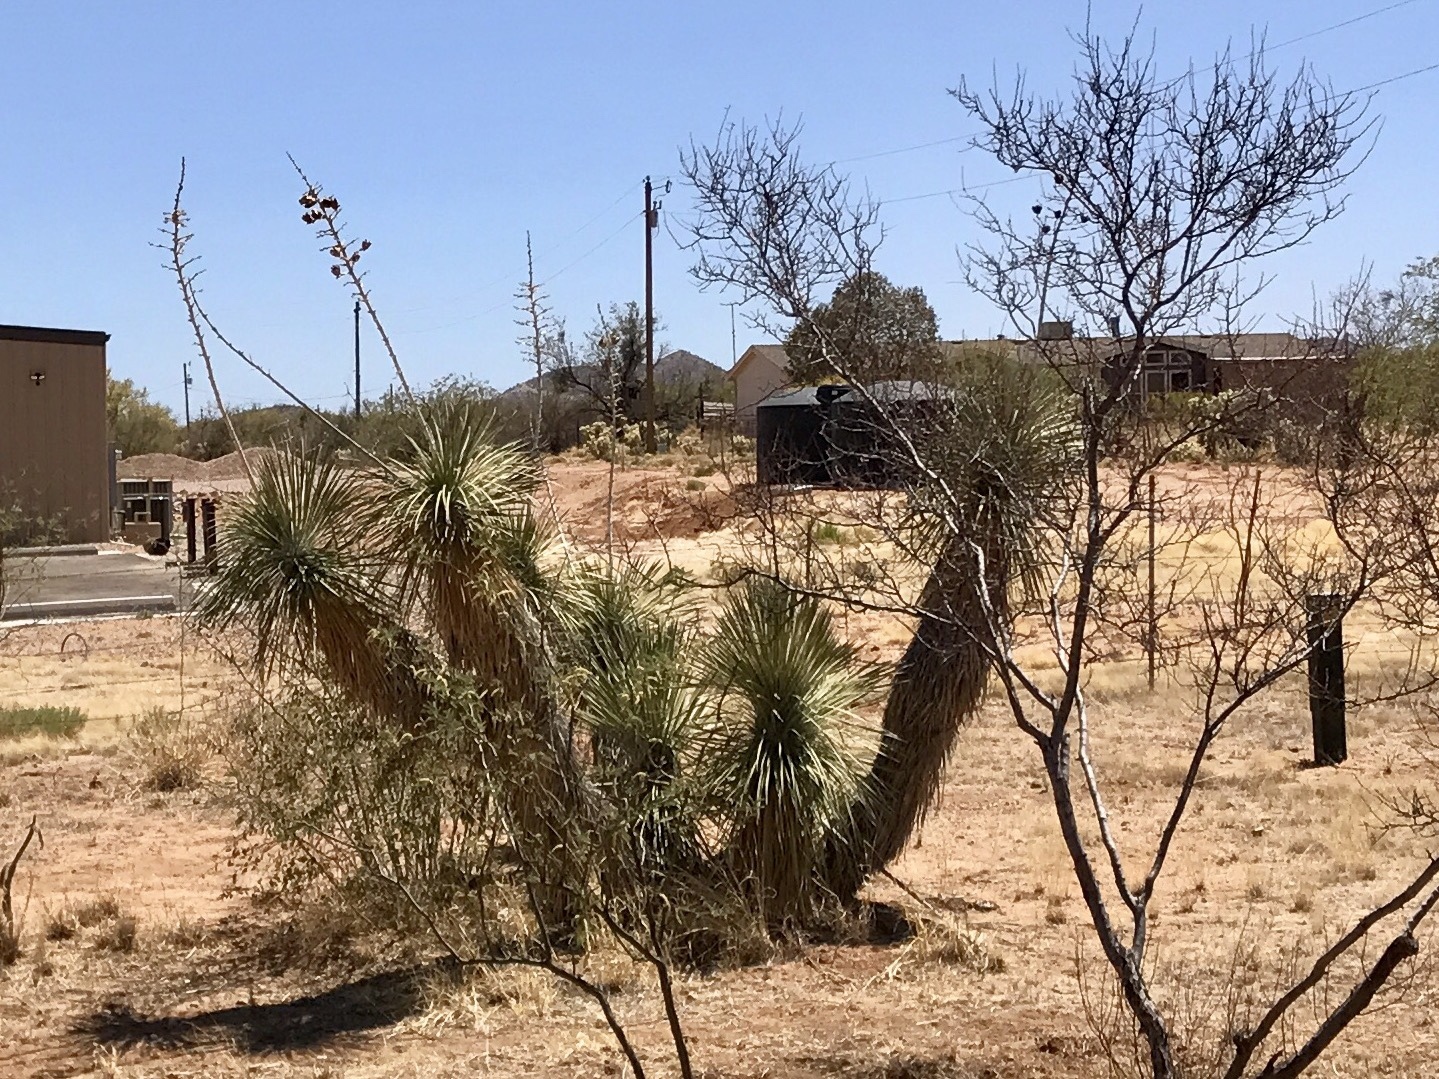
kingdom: Plantae
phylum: Tracheophyta
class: Liliopsida
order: Asparagales
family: Asparagaceae
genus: Yucca
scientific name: Yucca elata
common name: Palmella
